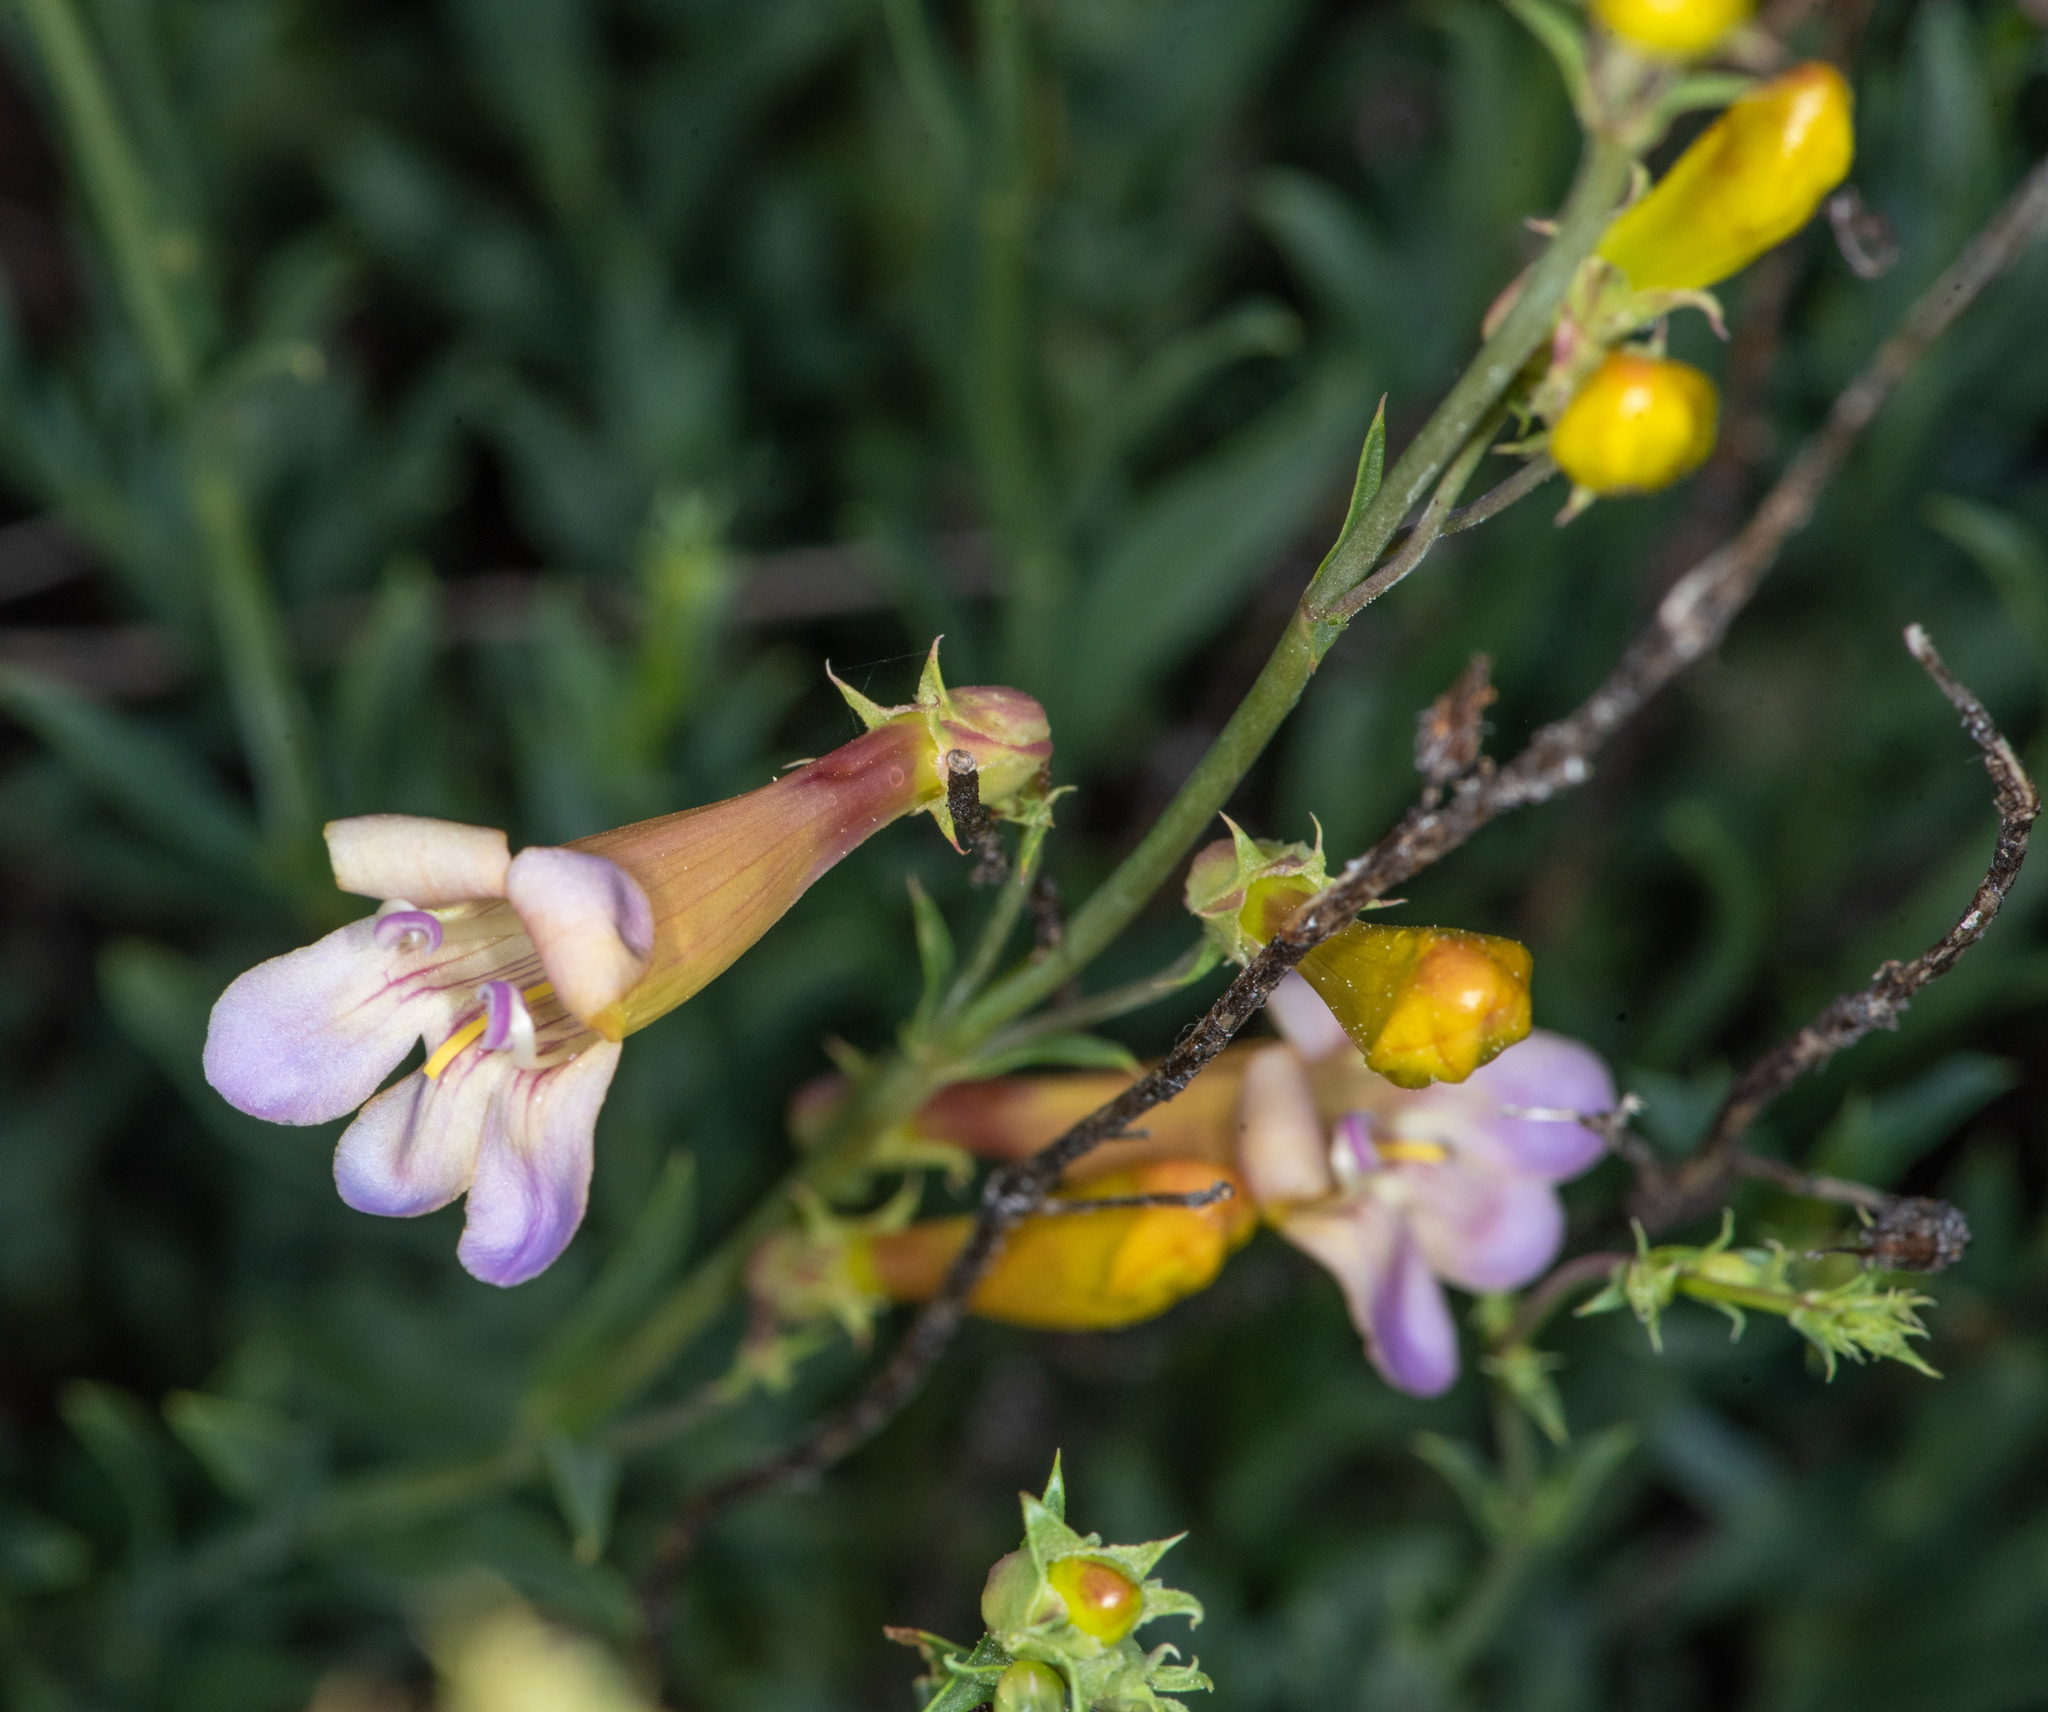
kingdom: Plantae
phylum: Tracheophyta
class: Magnoliopsida
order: Lamiales
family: Plantaginaceae
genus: Penstemon
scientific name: Penstemon heterophyllus
